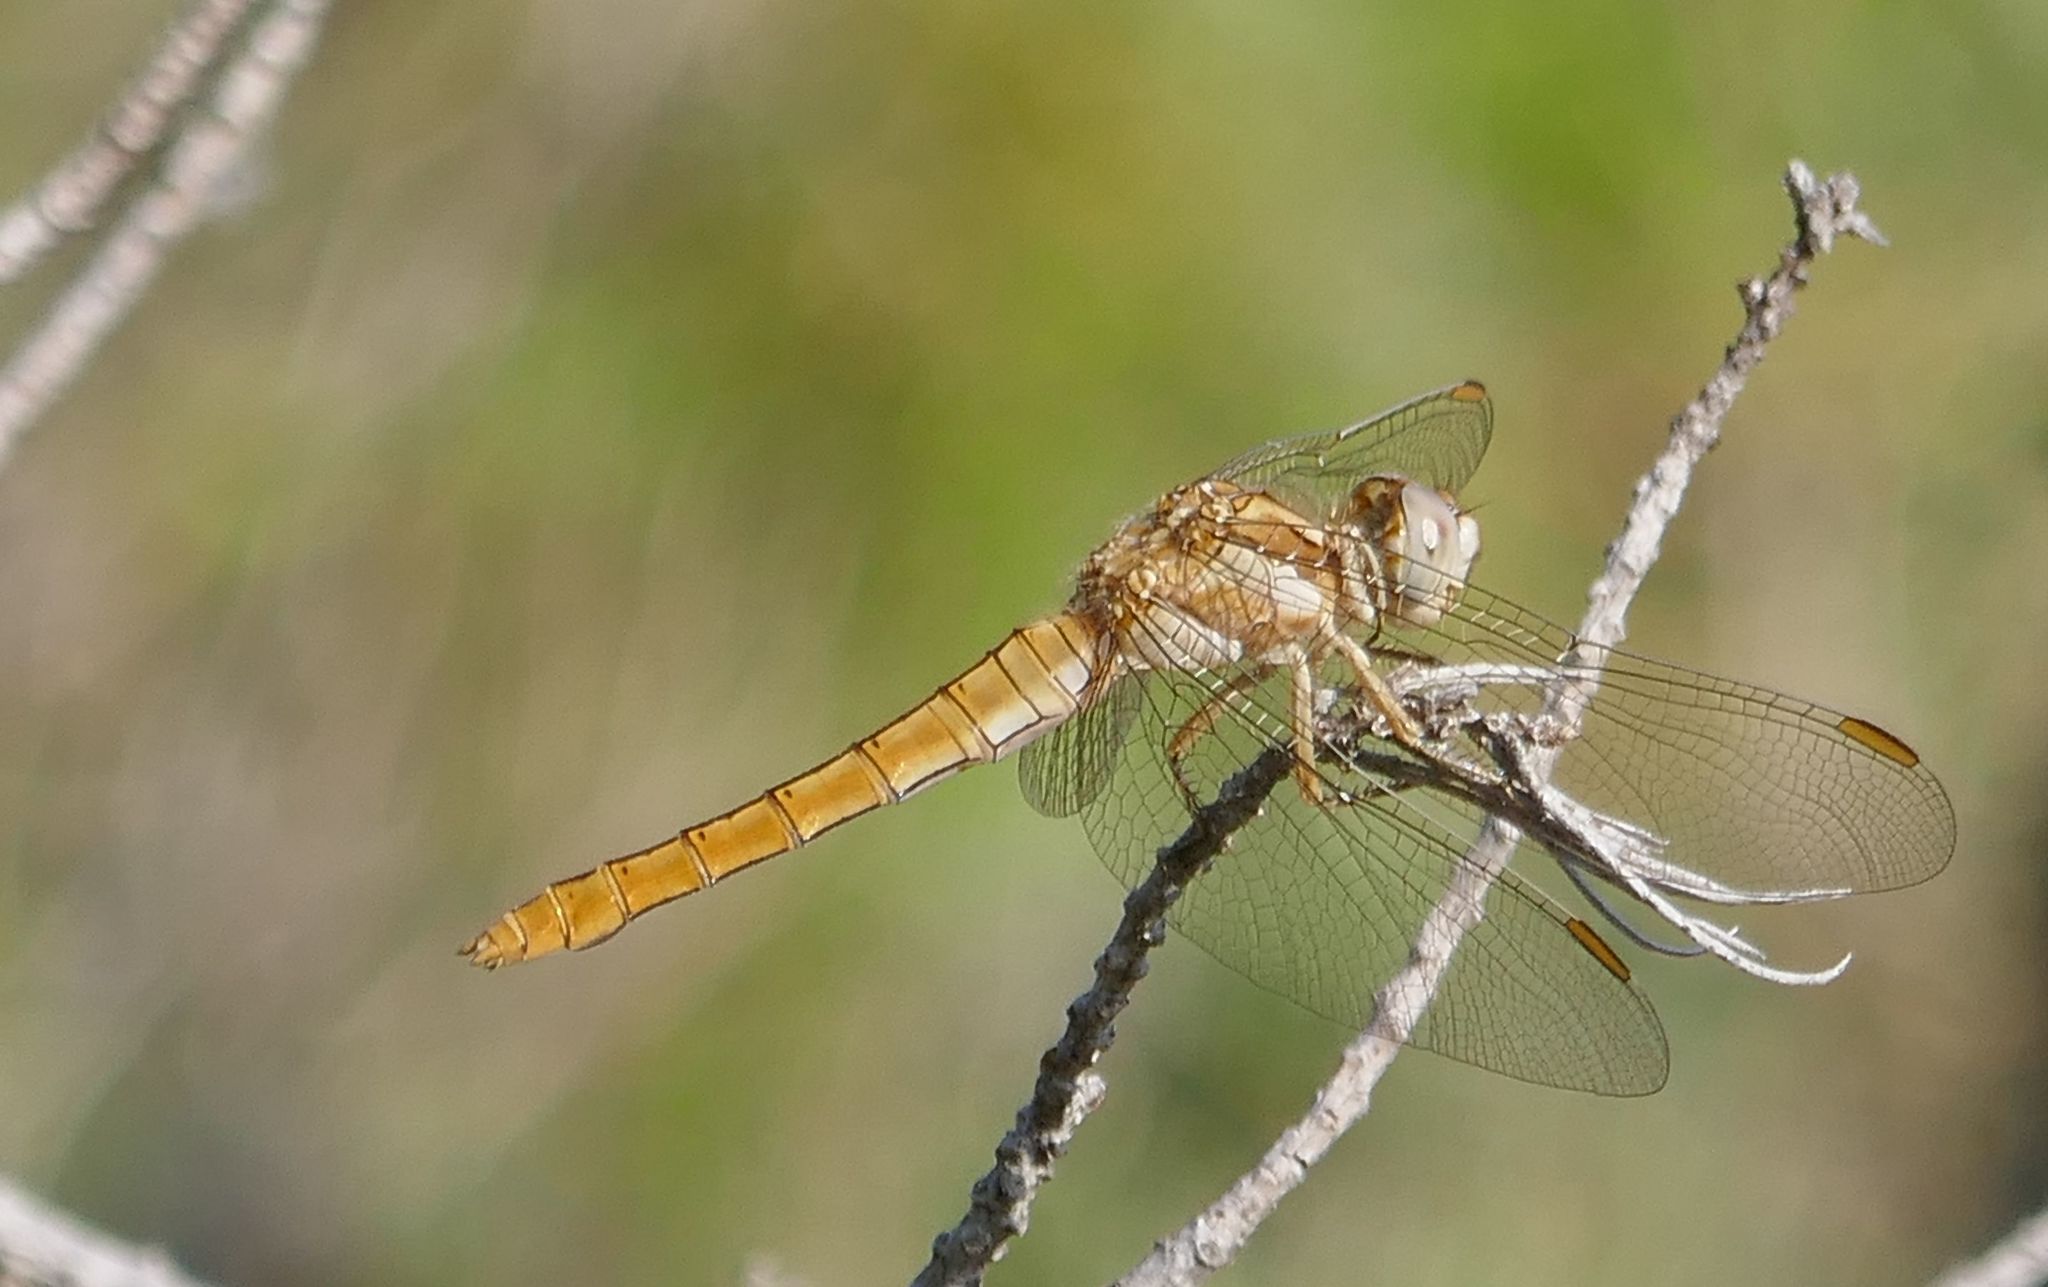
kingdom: Animalia
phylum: Arthropoda
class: Insecta
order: Odonata
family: Libellulidae
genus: Orthetrum
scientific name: Orthetrum brunneum
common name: Southern skimmer
